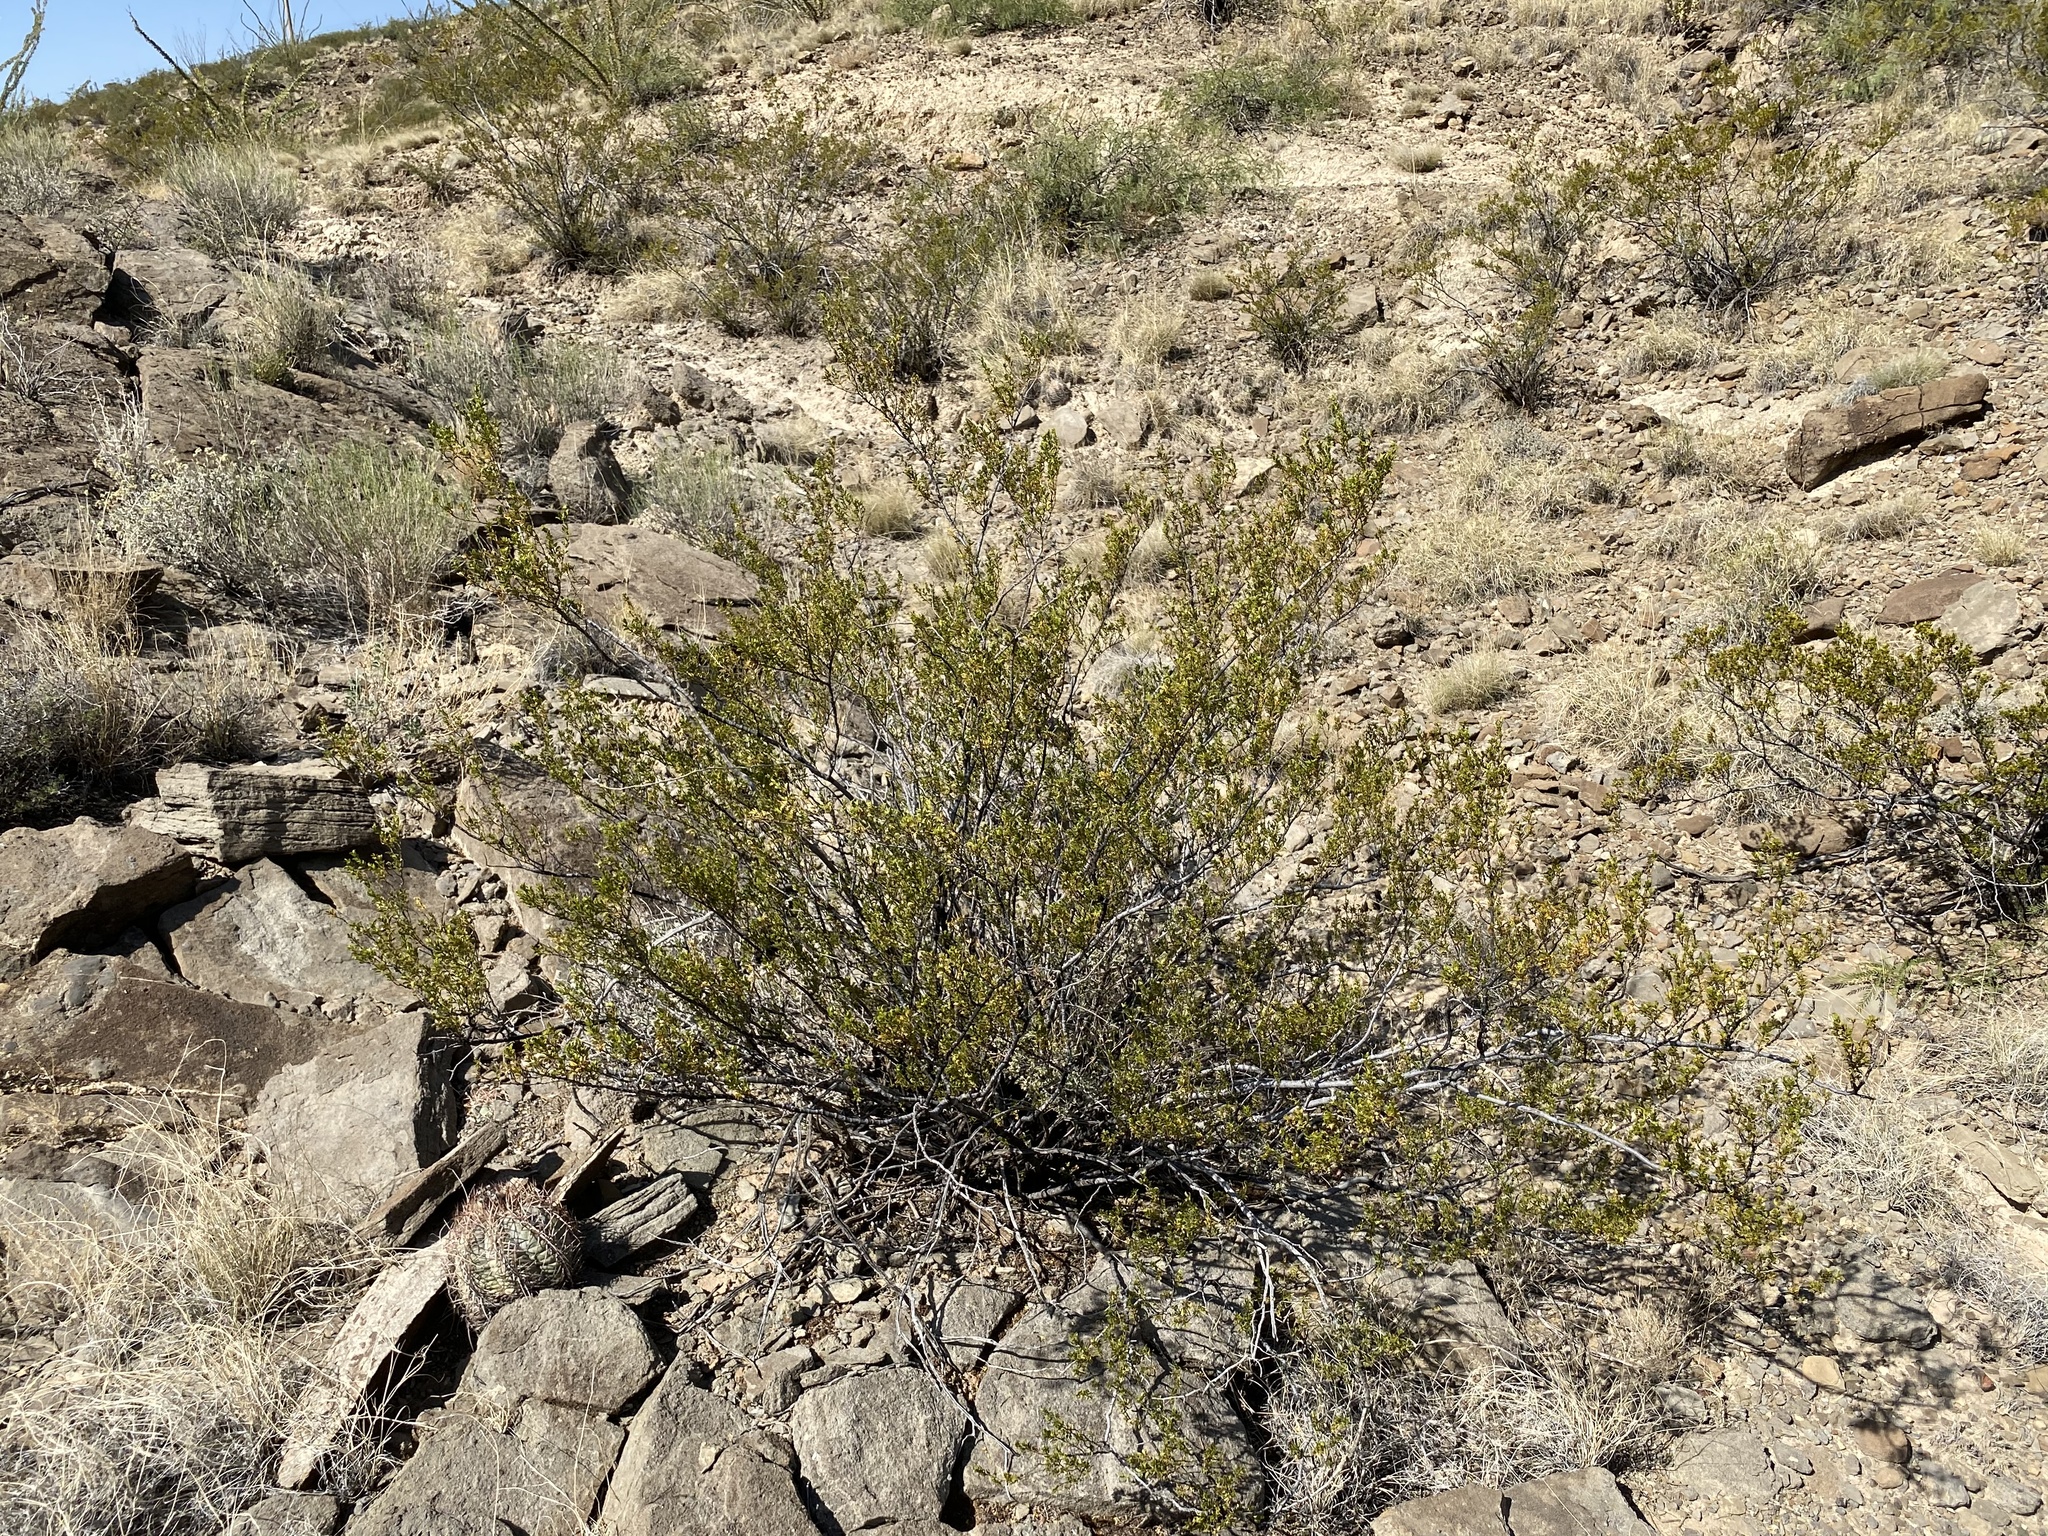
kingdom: Plantae
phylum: Tracheophyta
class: Magnoliopsida
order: Zygophyllales
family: Zygophyllaceae
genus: Larrea
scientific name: Larrea tridentata
